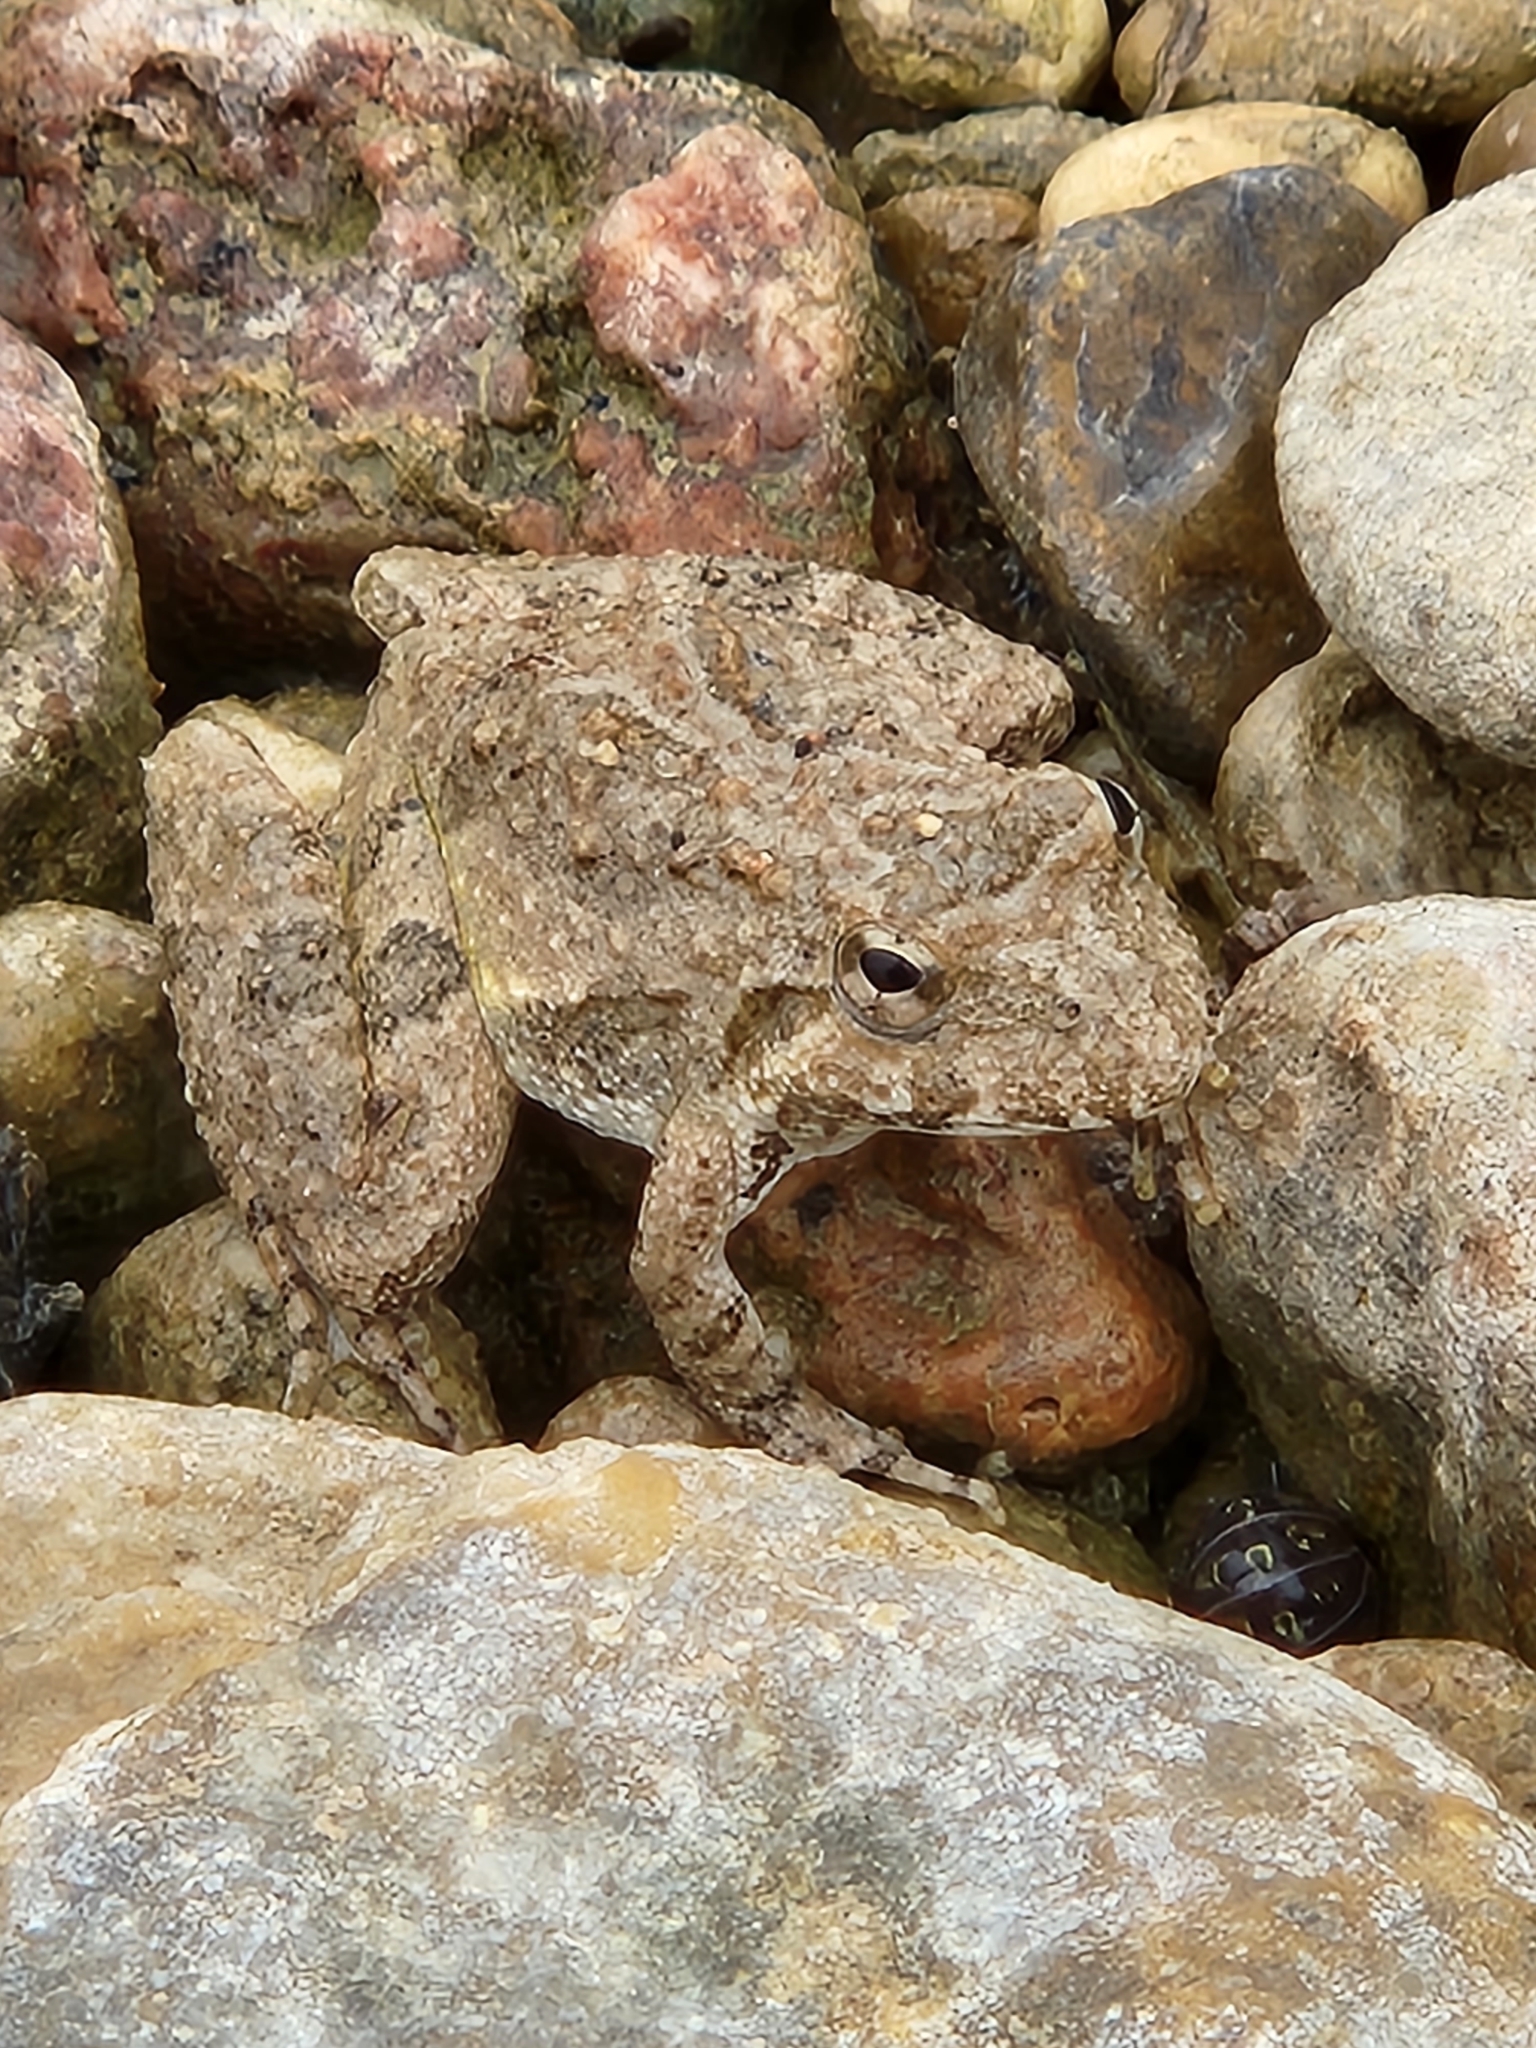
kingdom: Animalia
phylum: Chordata
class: Amphibia
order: Anura
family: Hylidae
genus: Acris
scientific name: Acris blanchardi
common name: Blanchard's cricket frog
